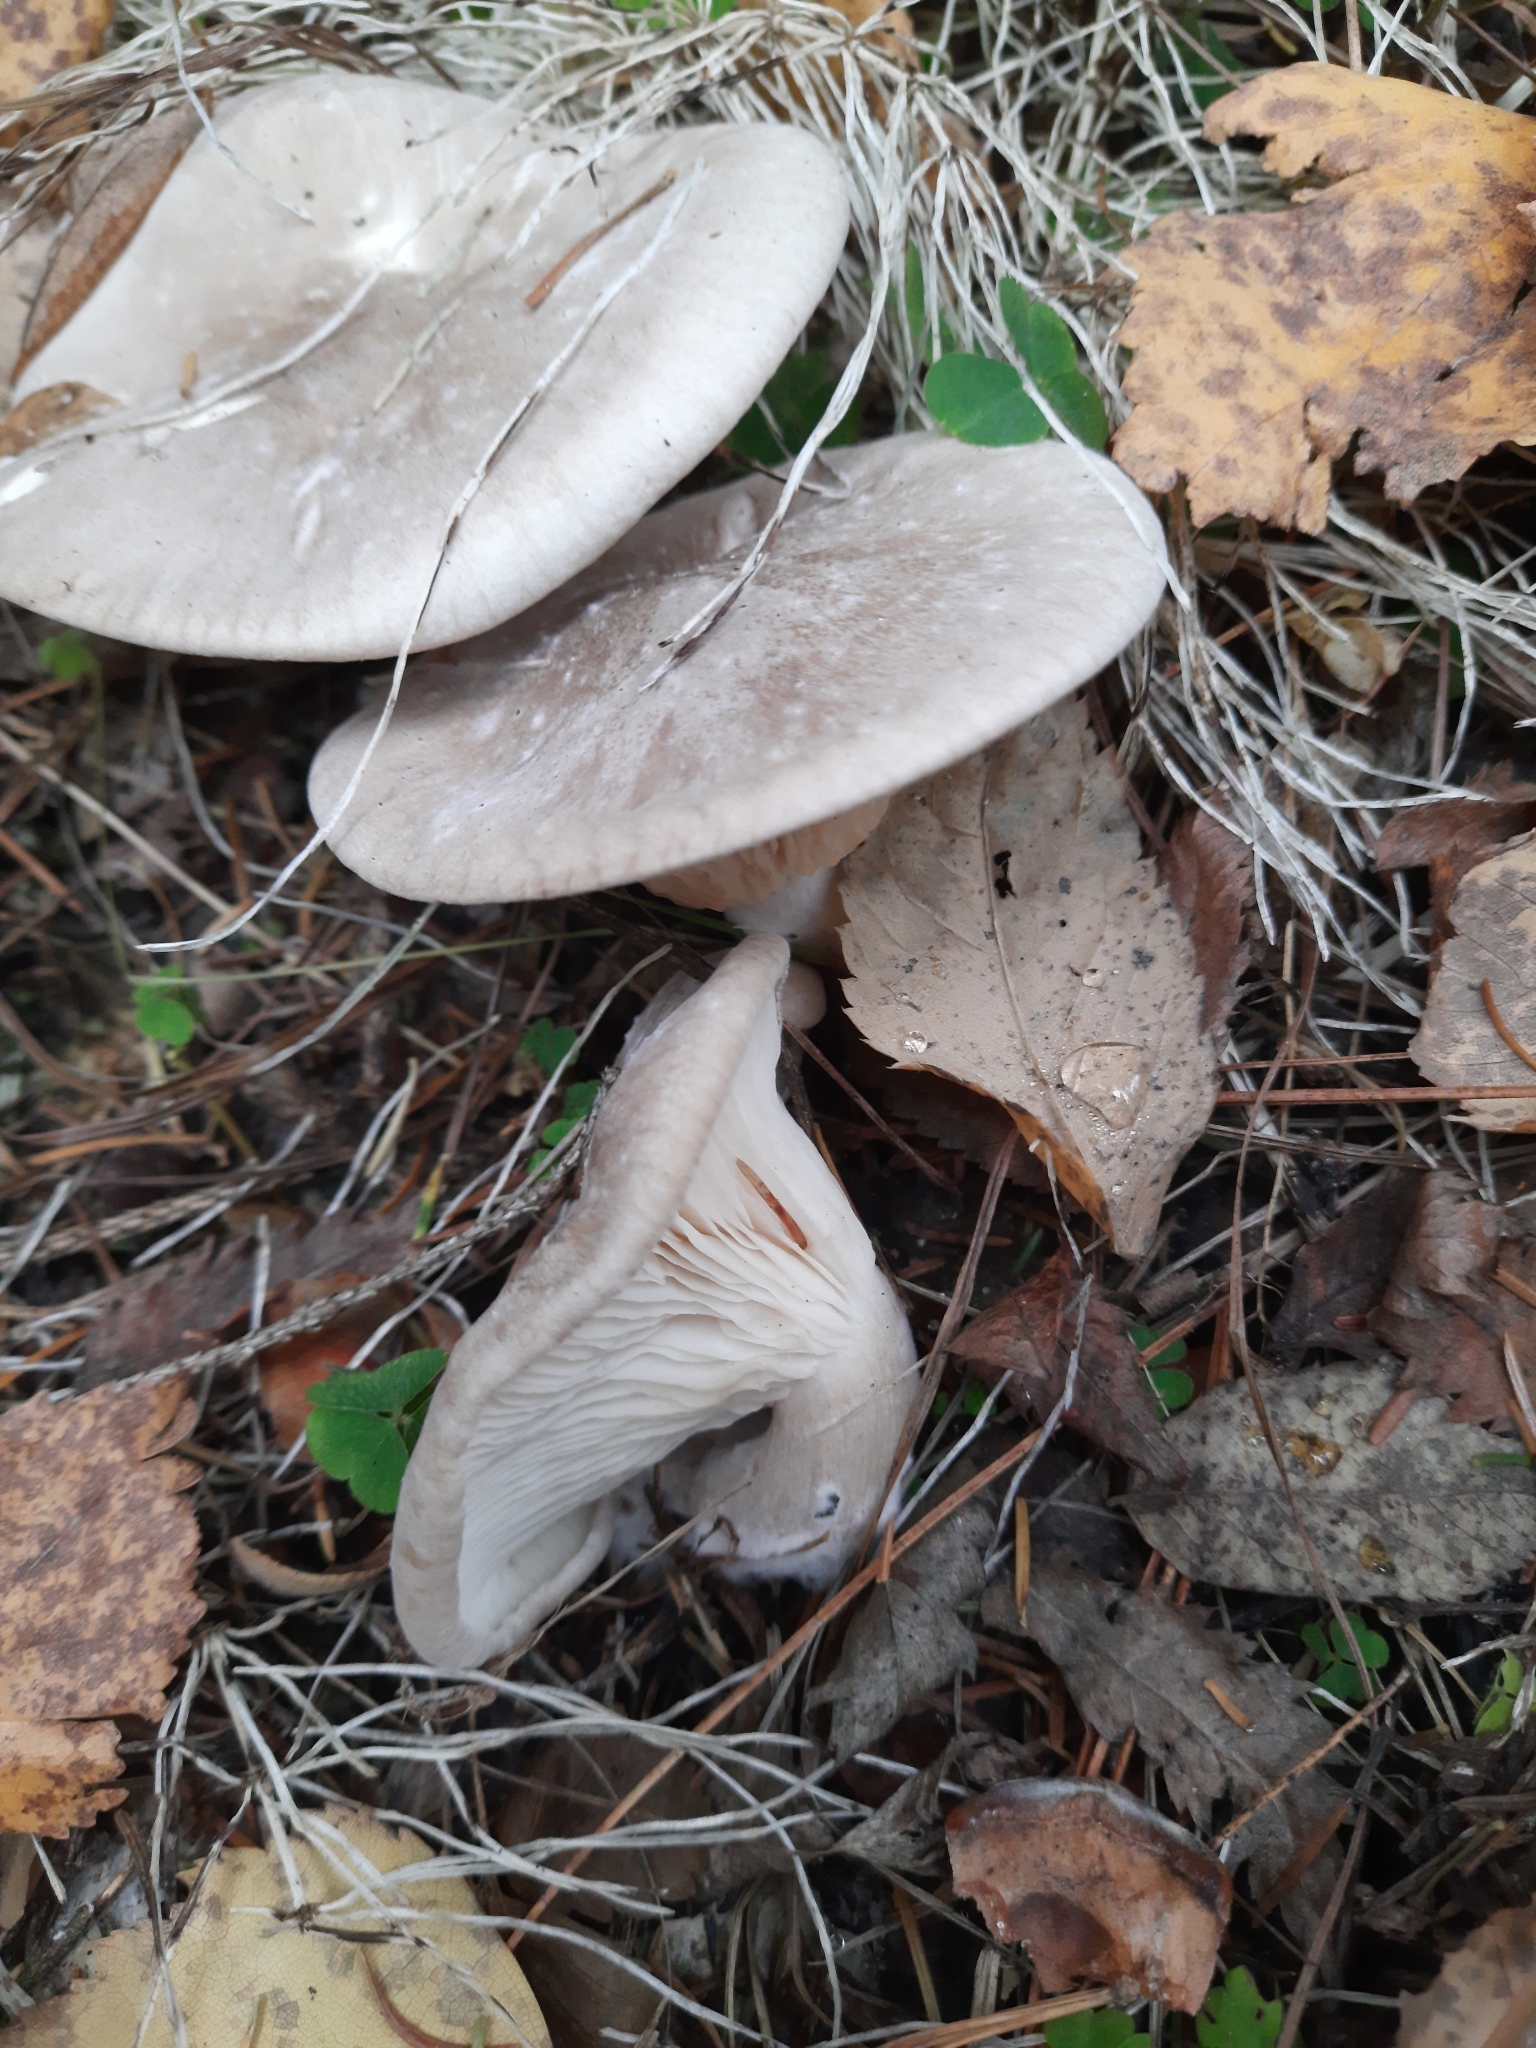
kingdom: Fungi
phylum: Basidiomycota
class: Agaricomycetes
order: Agaricales
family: Tricholomataceae
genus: Clitocybe
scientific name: Clitocybe nebularis
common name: Clouded agaric
